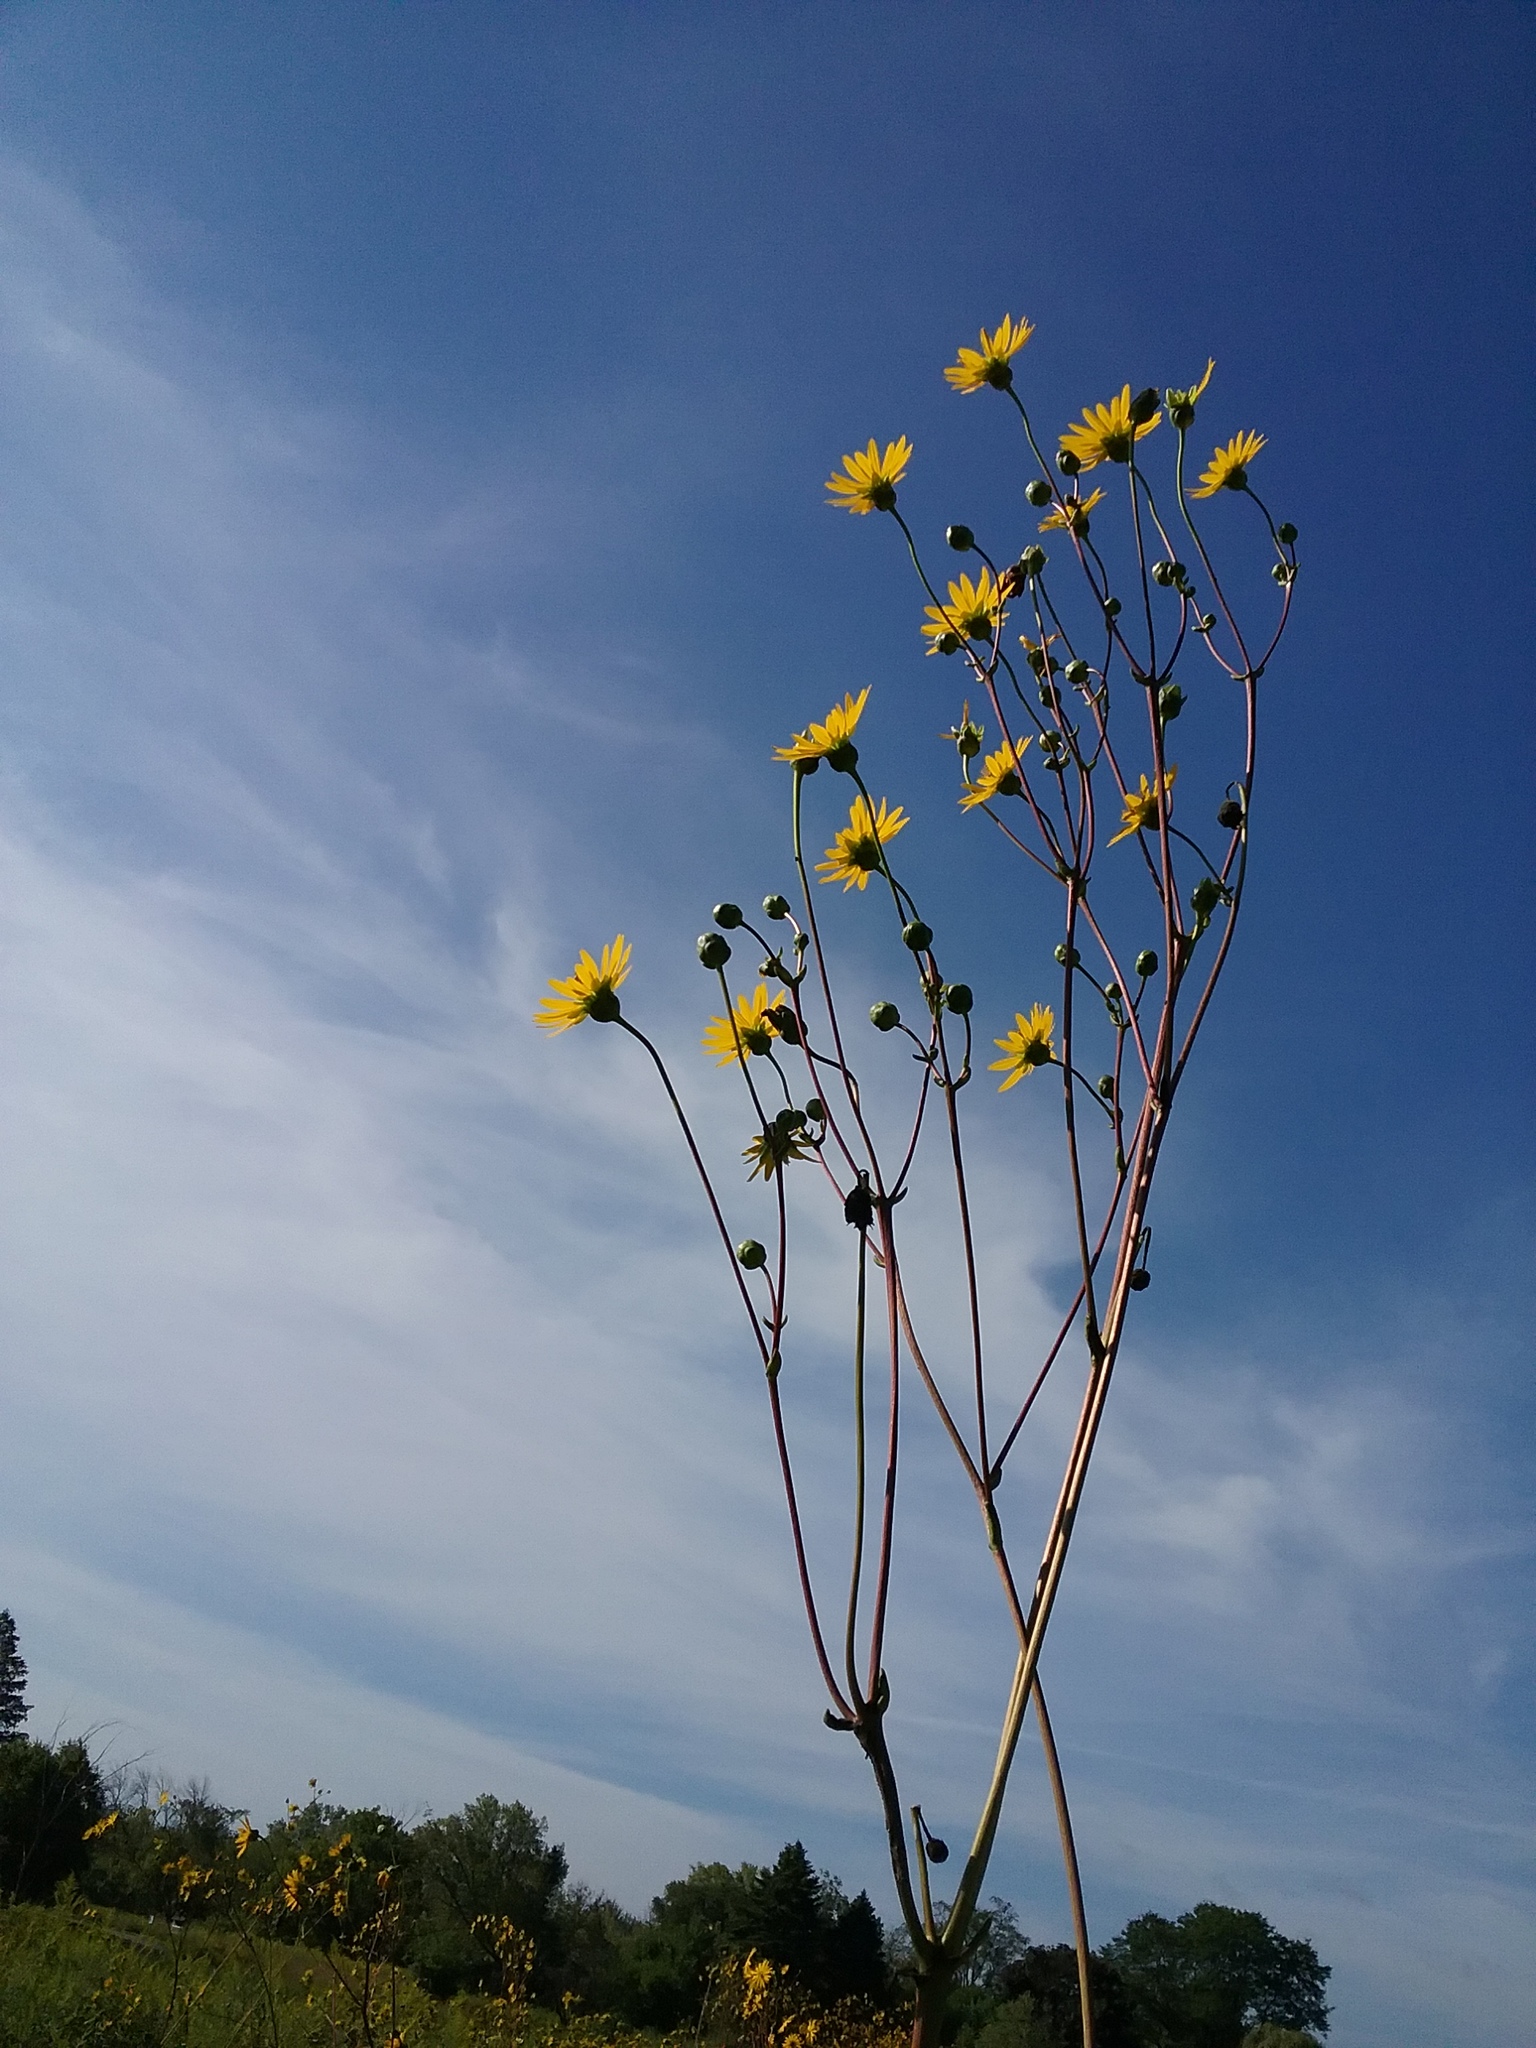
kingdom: Plantae
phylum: Tracheophyta
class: Magnoliopsida
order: Asterales
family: Asteraceae
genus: Silphium
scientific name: Silphium terebinthinaceum
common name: Basal-leaf rosinweed
